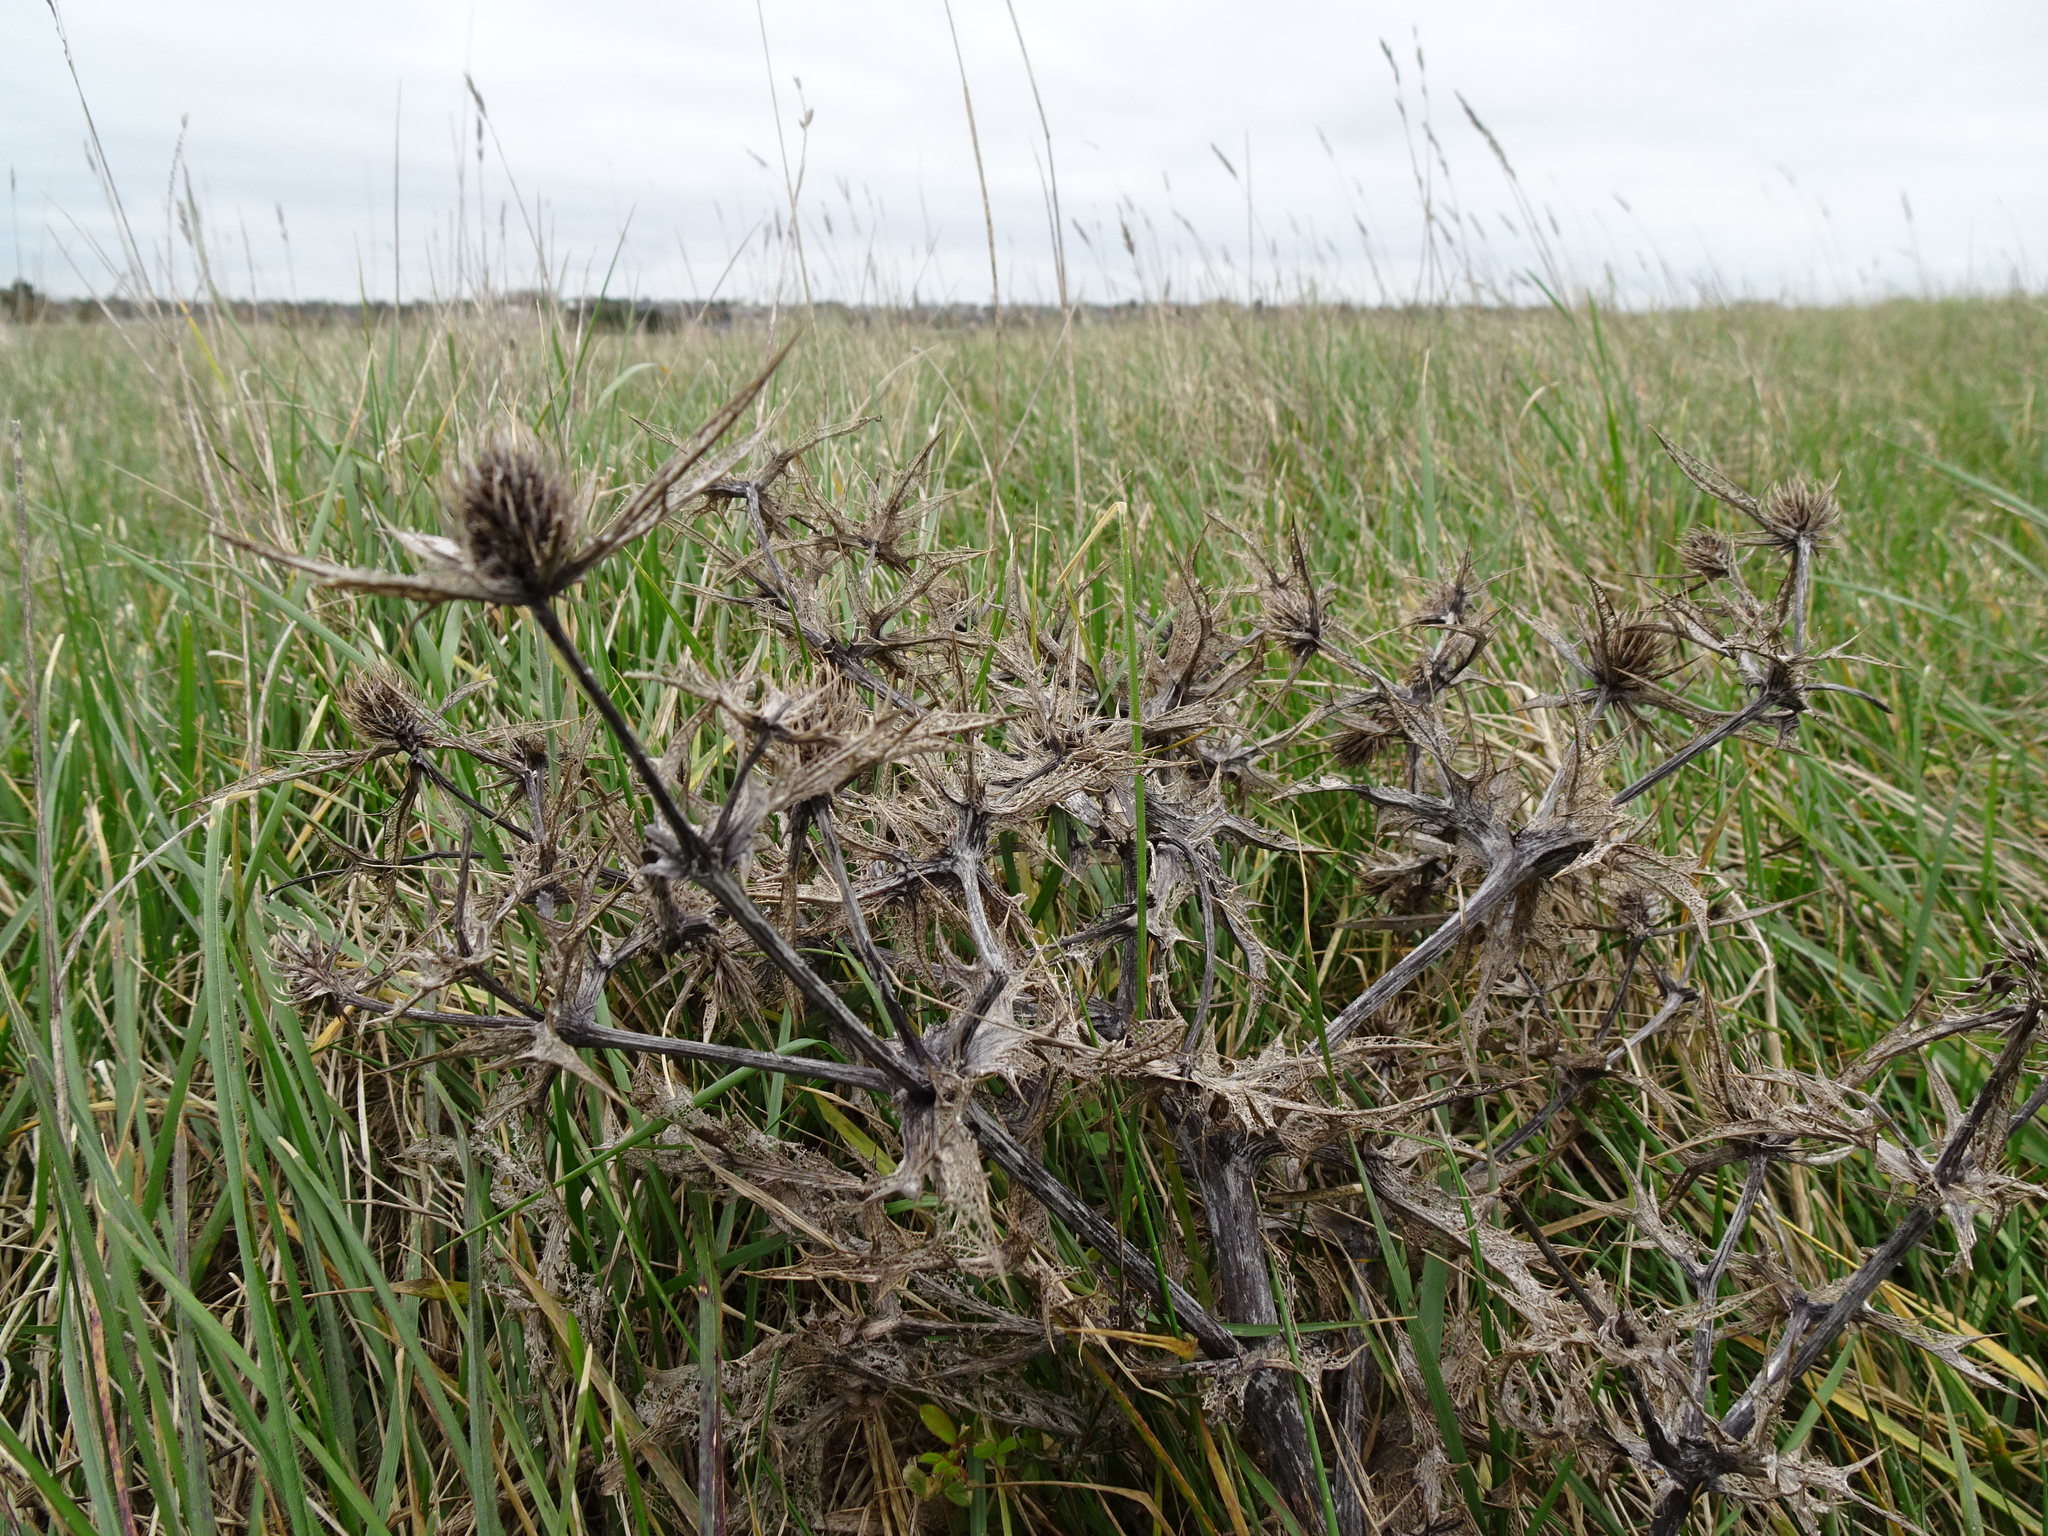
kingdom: Plantae
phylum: Tracheophyta
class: Magnoliopsida
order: Apiales
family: Apiaceae
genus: Eryngium
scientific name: Eryngium campestre
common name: Field eryngo
